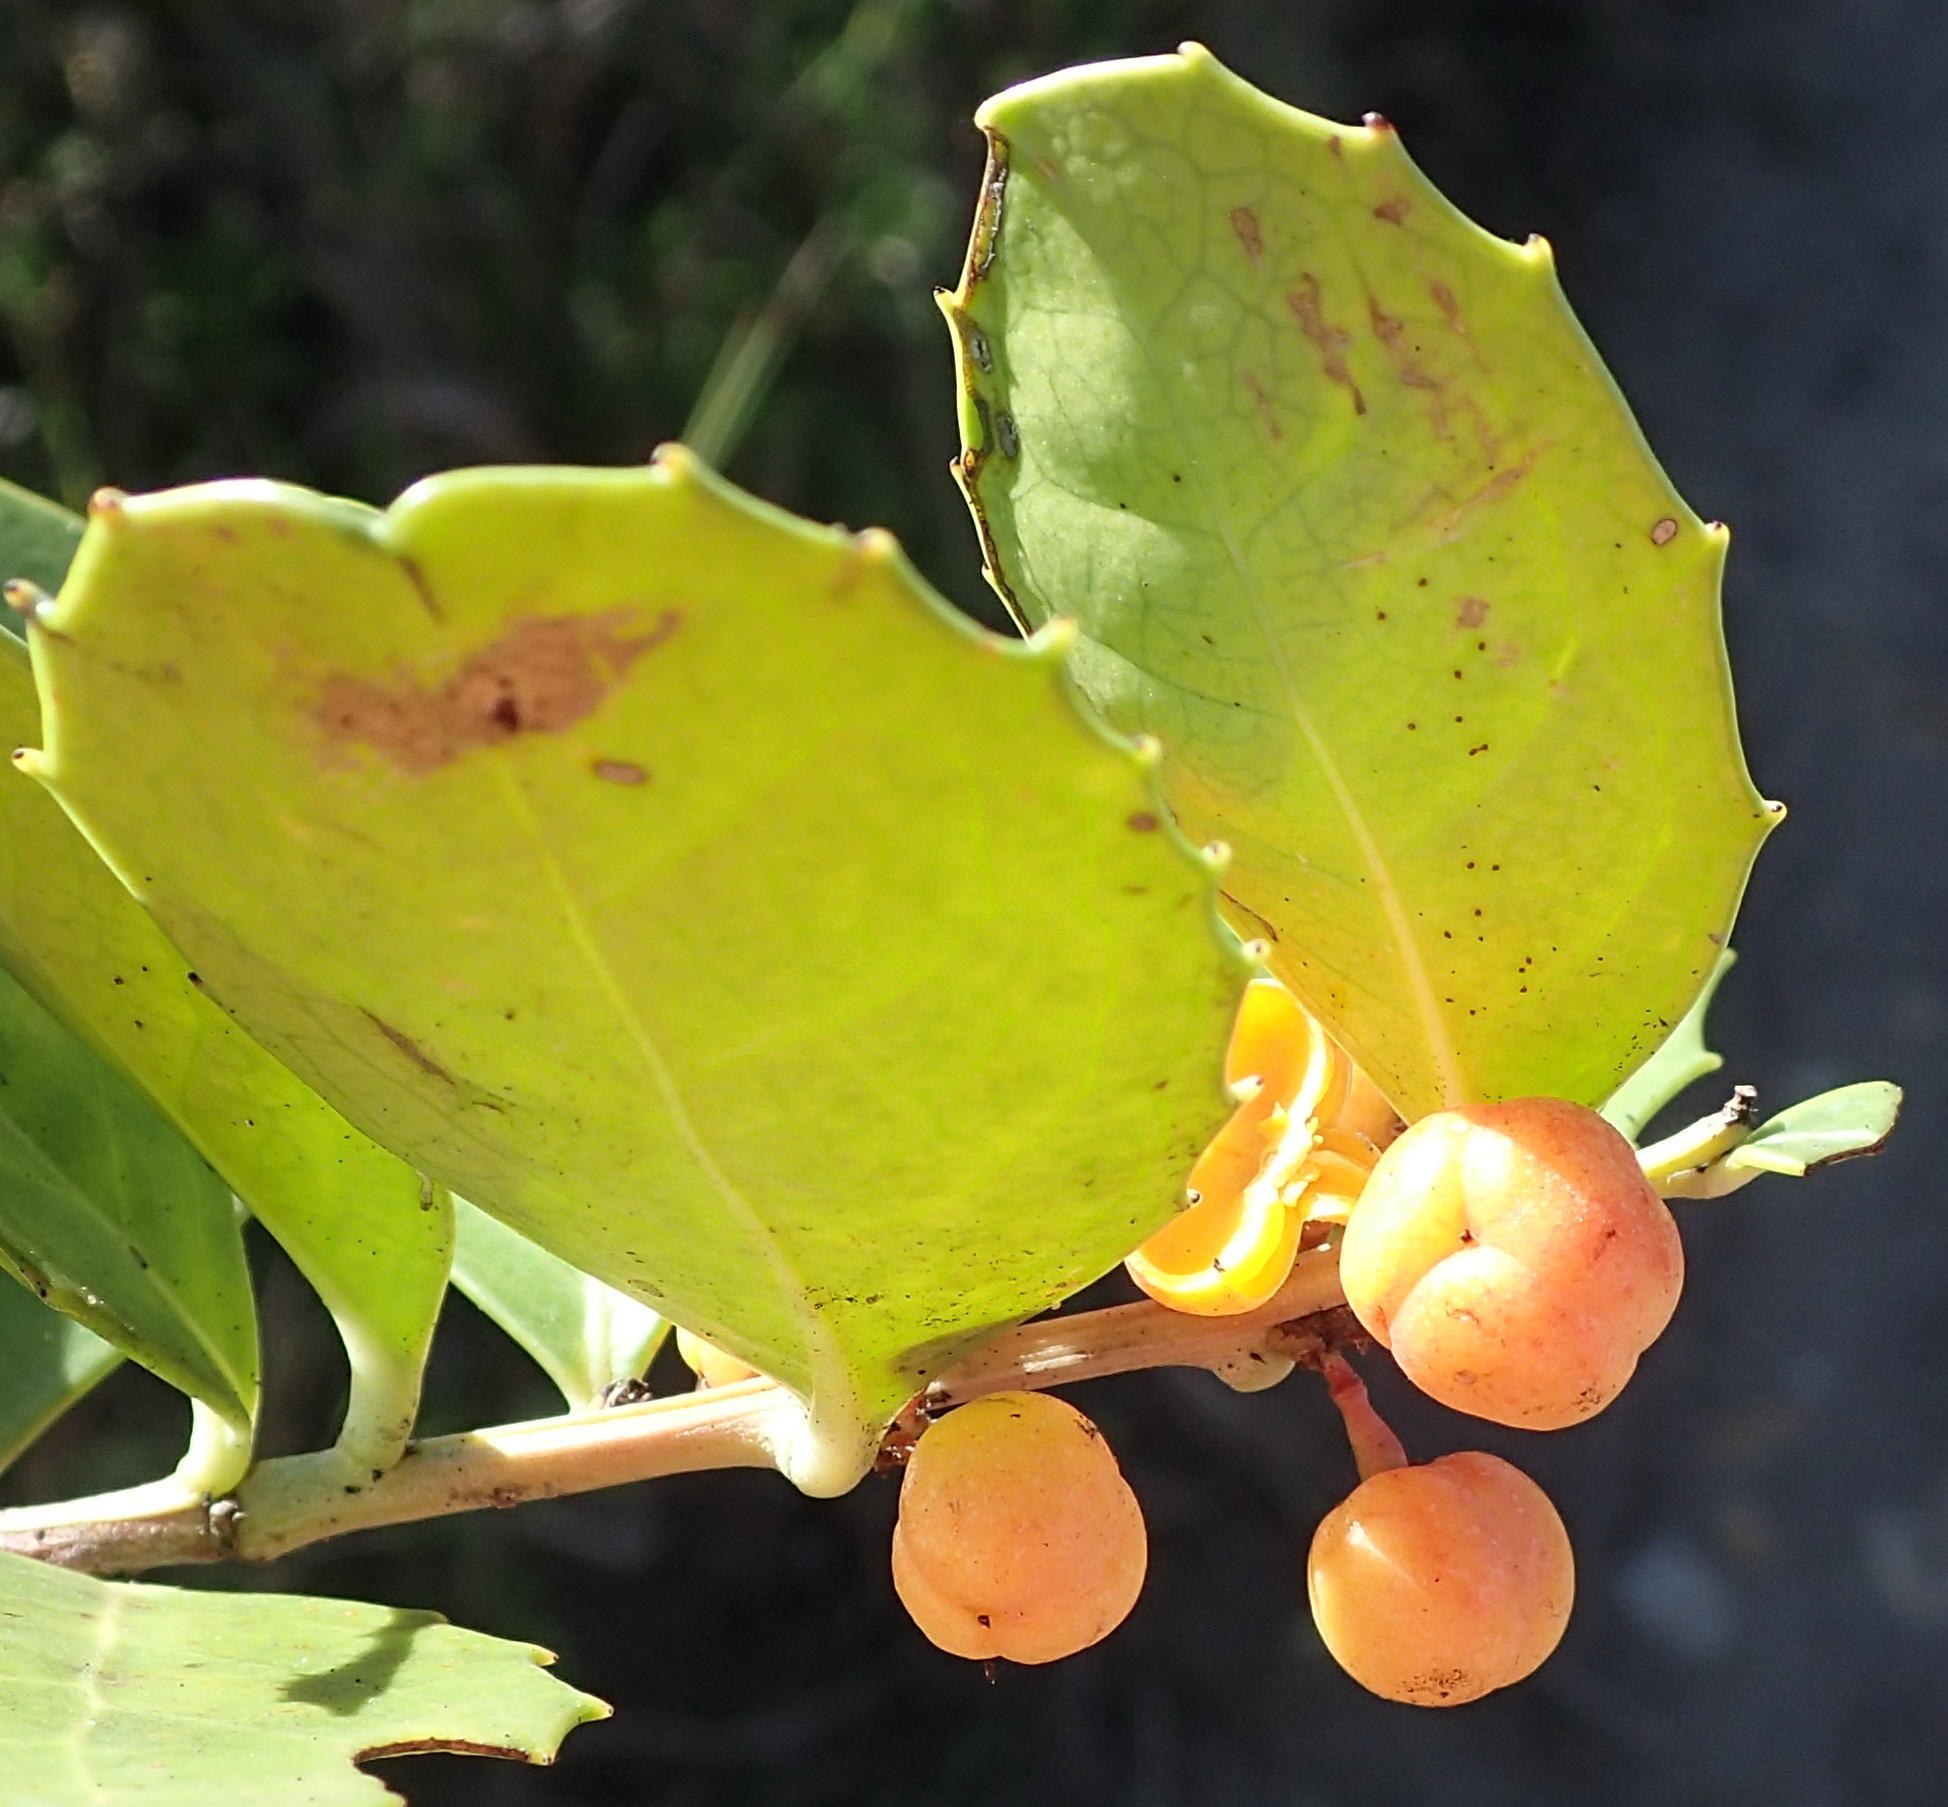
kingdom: Plantae
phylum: Tracheophyta
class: Magnoliopsida
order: Celastrales
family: Celastraceae
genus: Gymnosporia
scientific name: Gymnosporia procumbens
